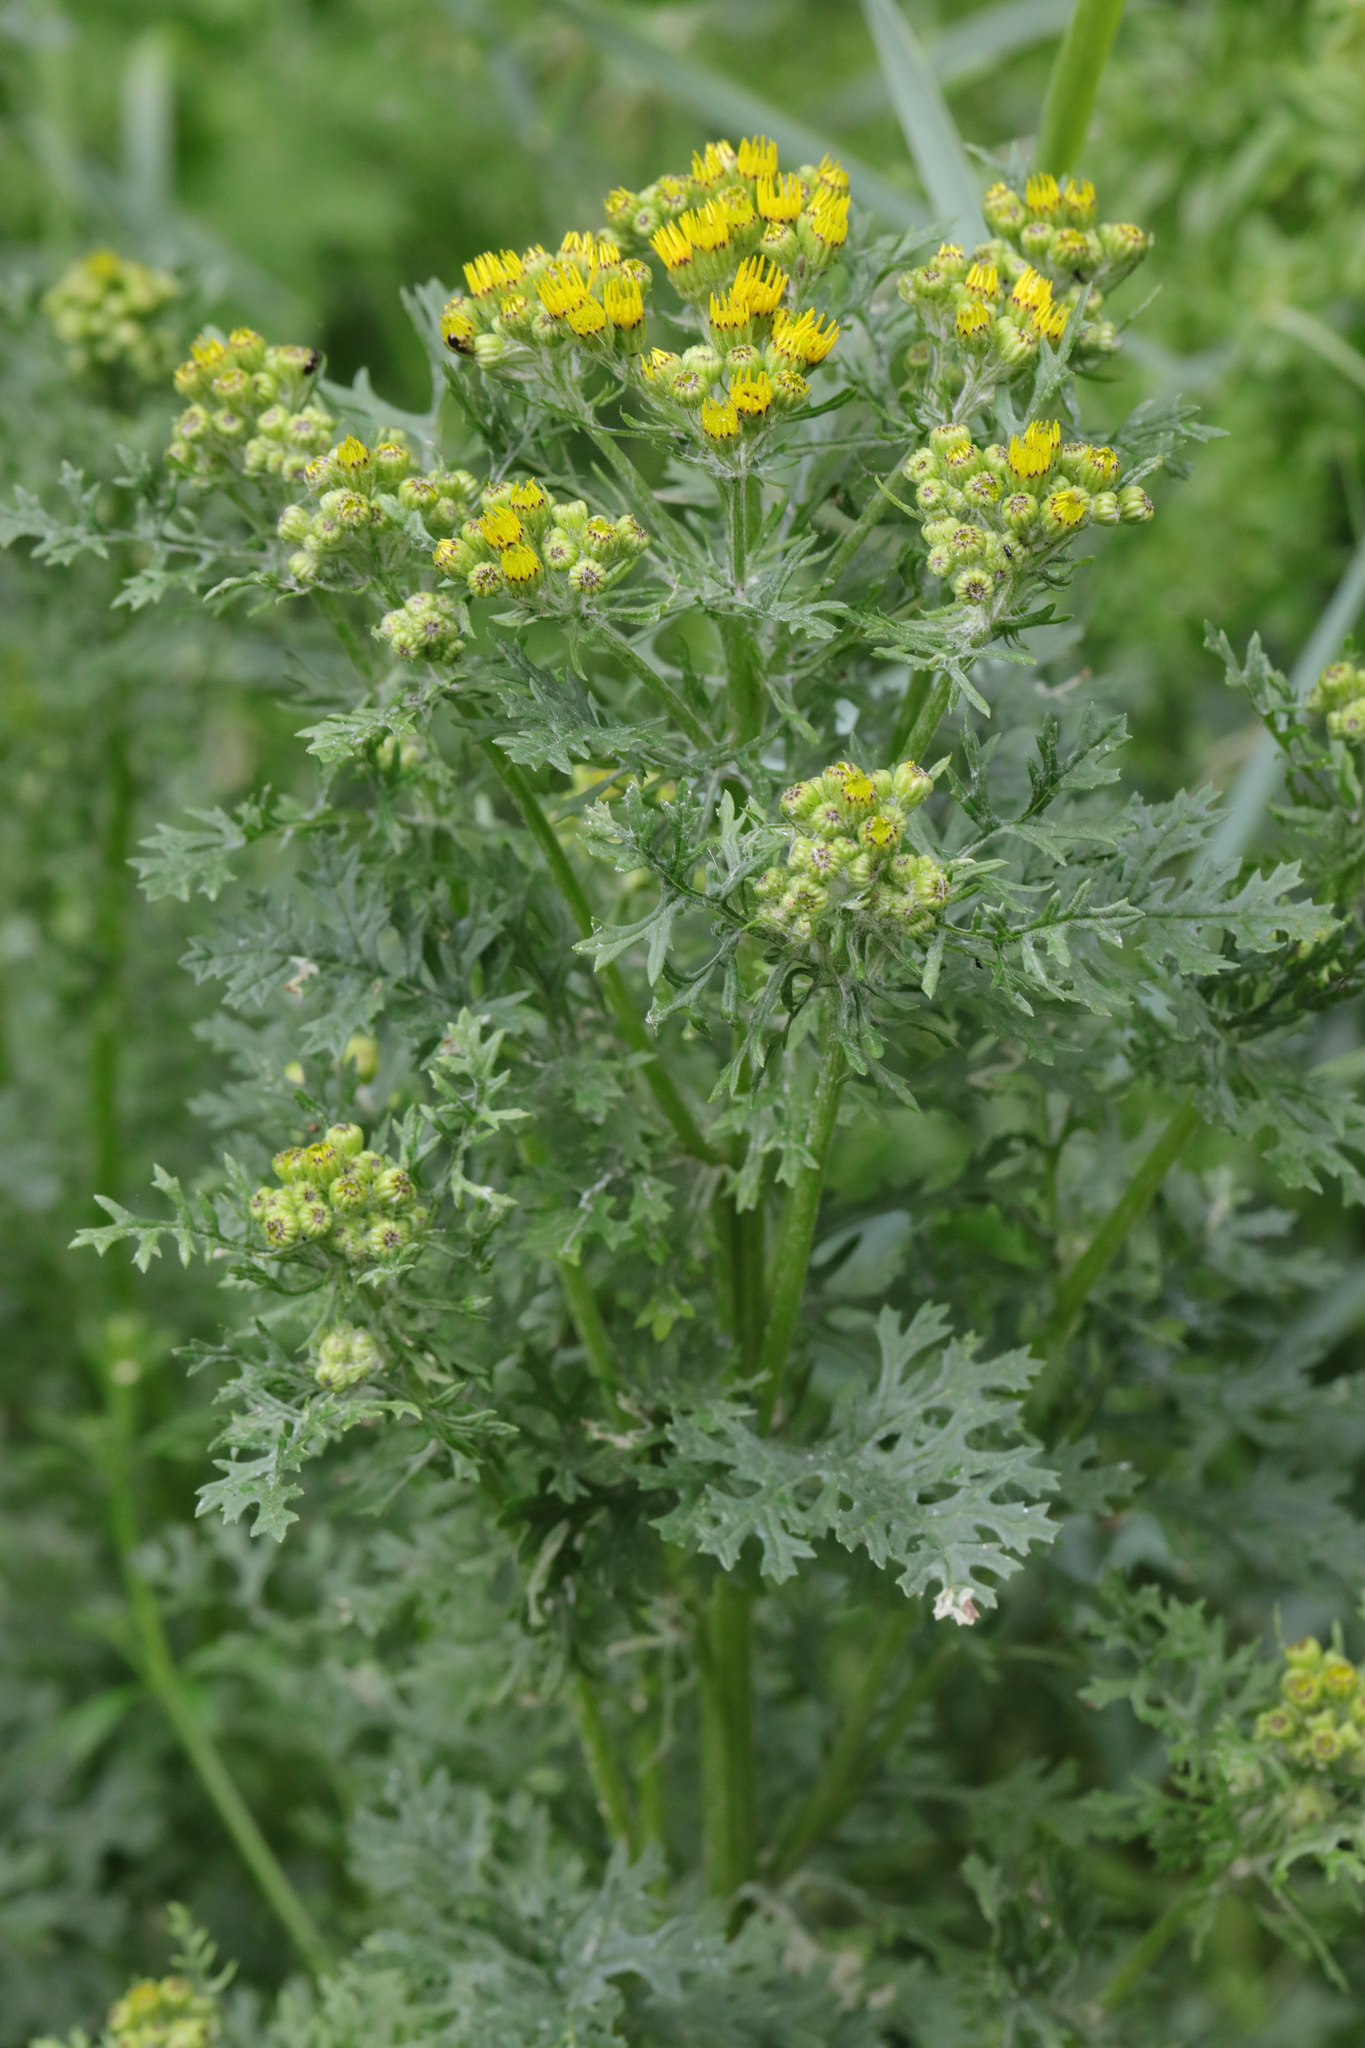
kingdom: Plantae
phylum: Tracheophyta
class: Magnoliopsida
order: Asterales
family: Asteraceae
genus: Jacobaea
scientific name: Jacobaea vulgaris
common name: Stinking willie
